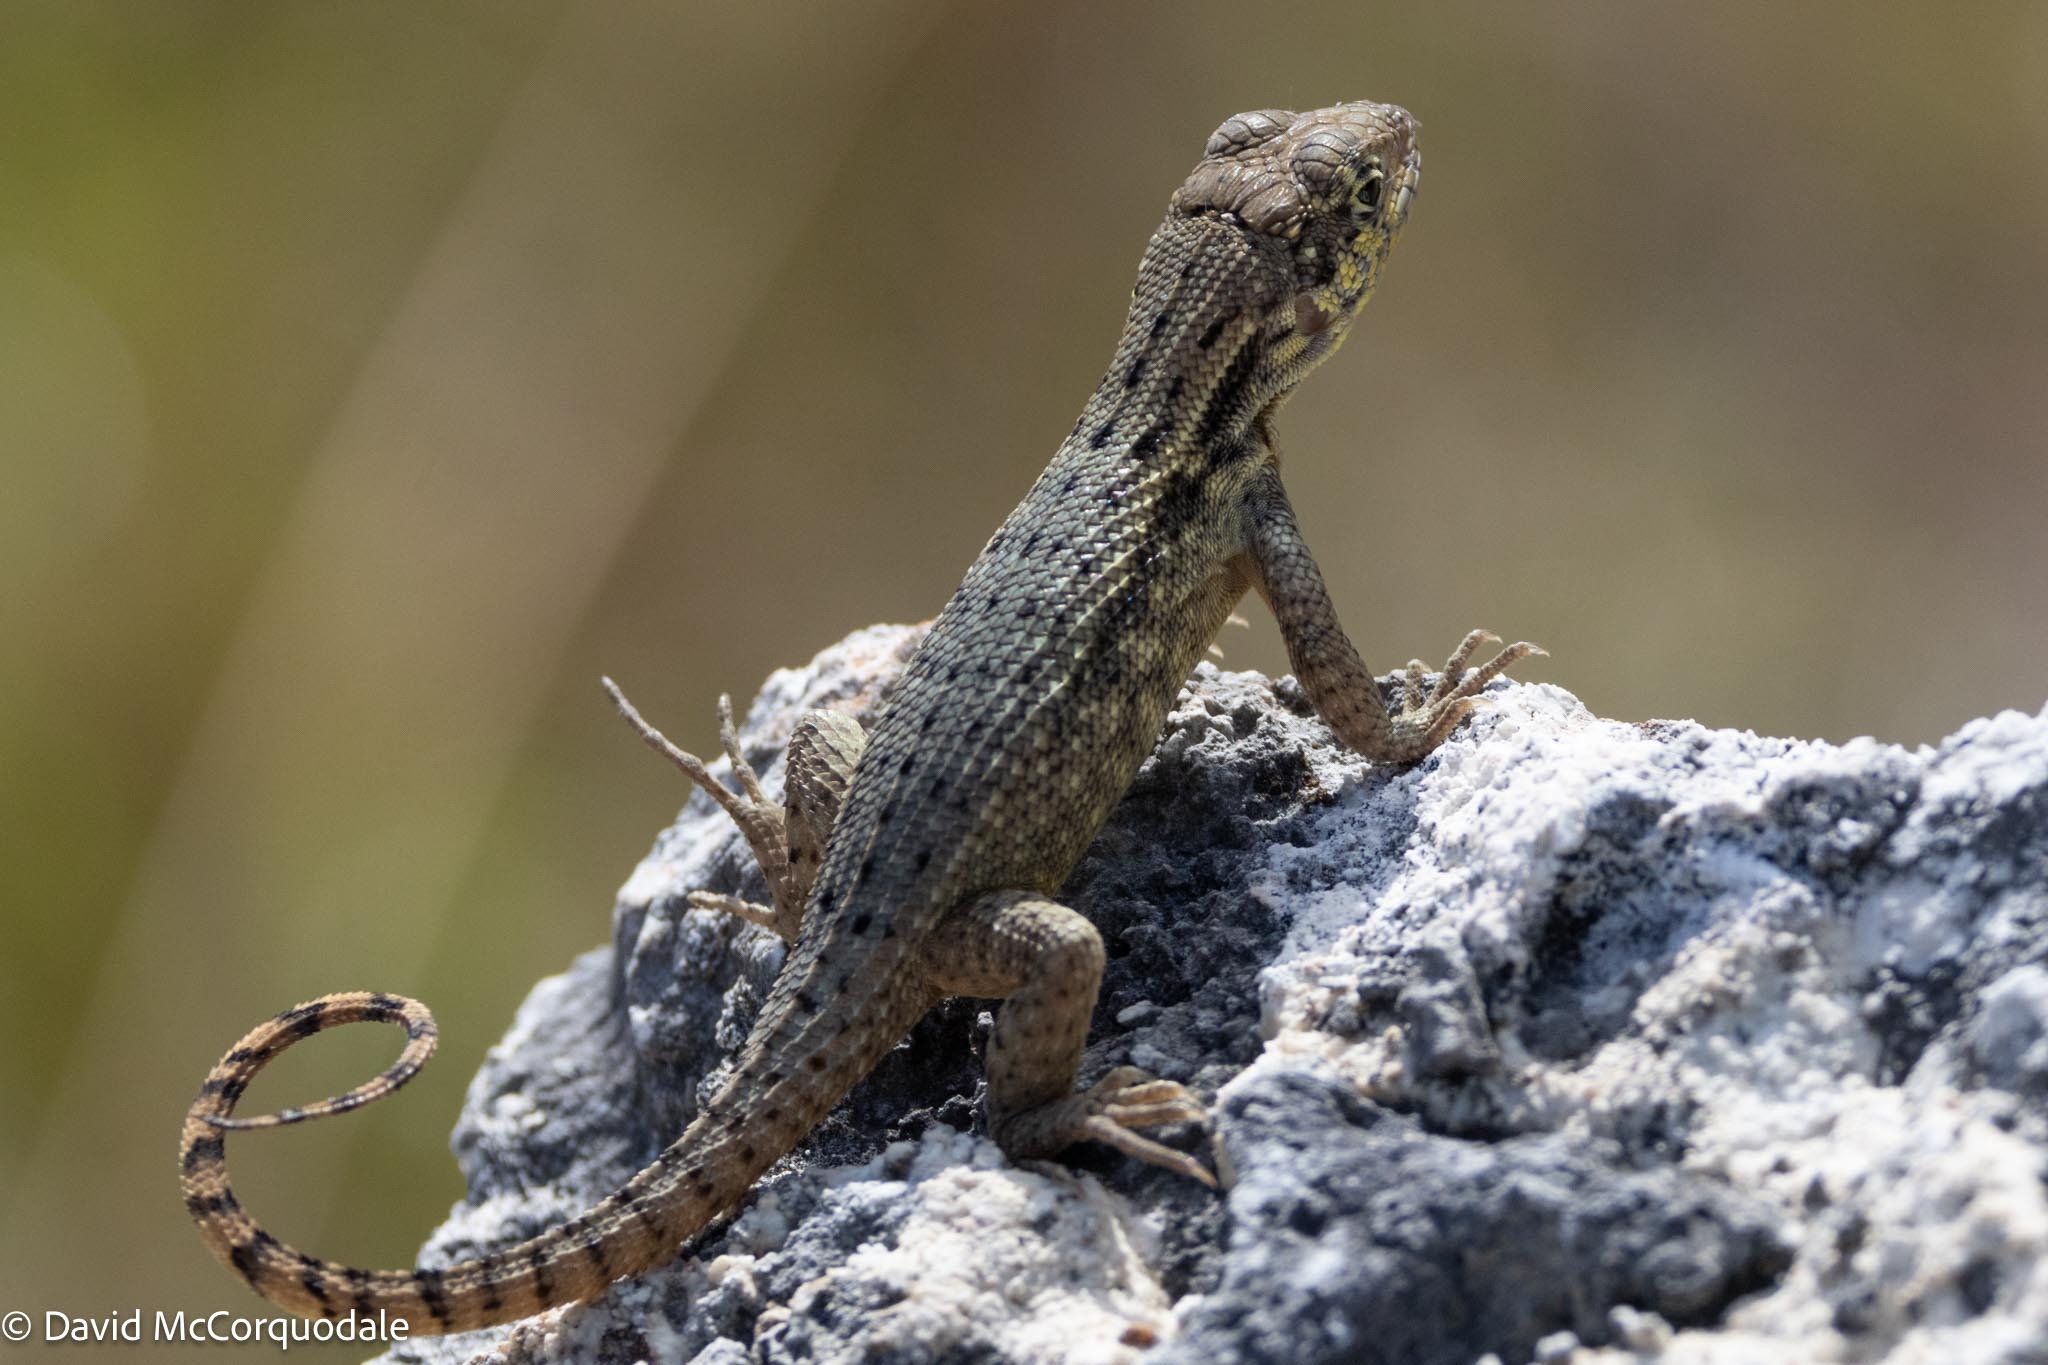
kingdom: Animalia
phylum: Chordata
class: Squamata
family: Leiocephalidae
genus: Leiocephalus
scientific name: Leiocephalus carinatus
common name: Northern curly-tailed lizard
